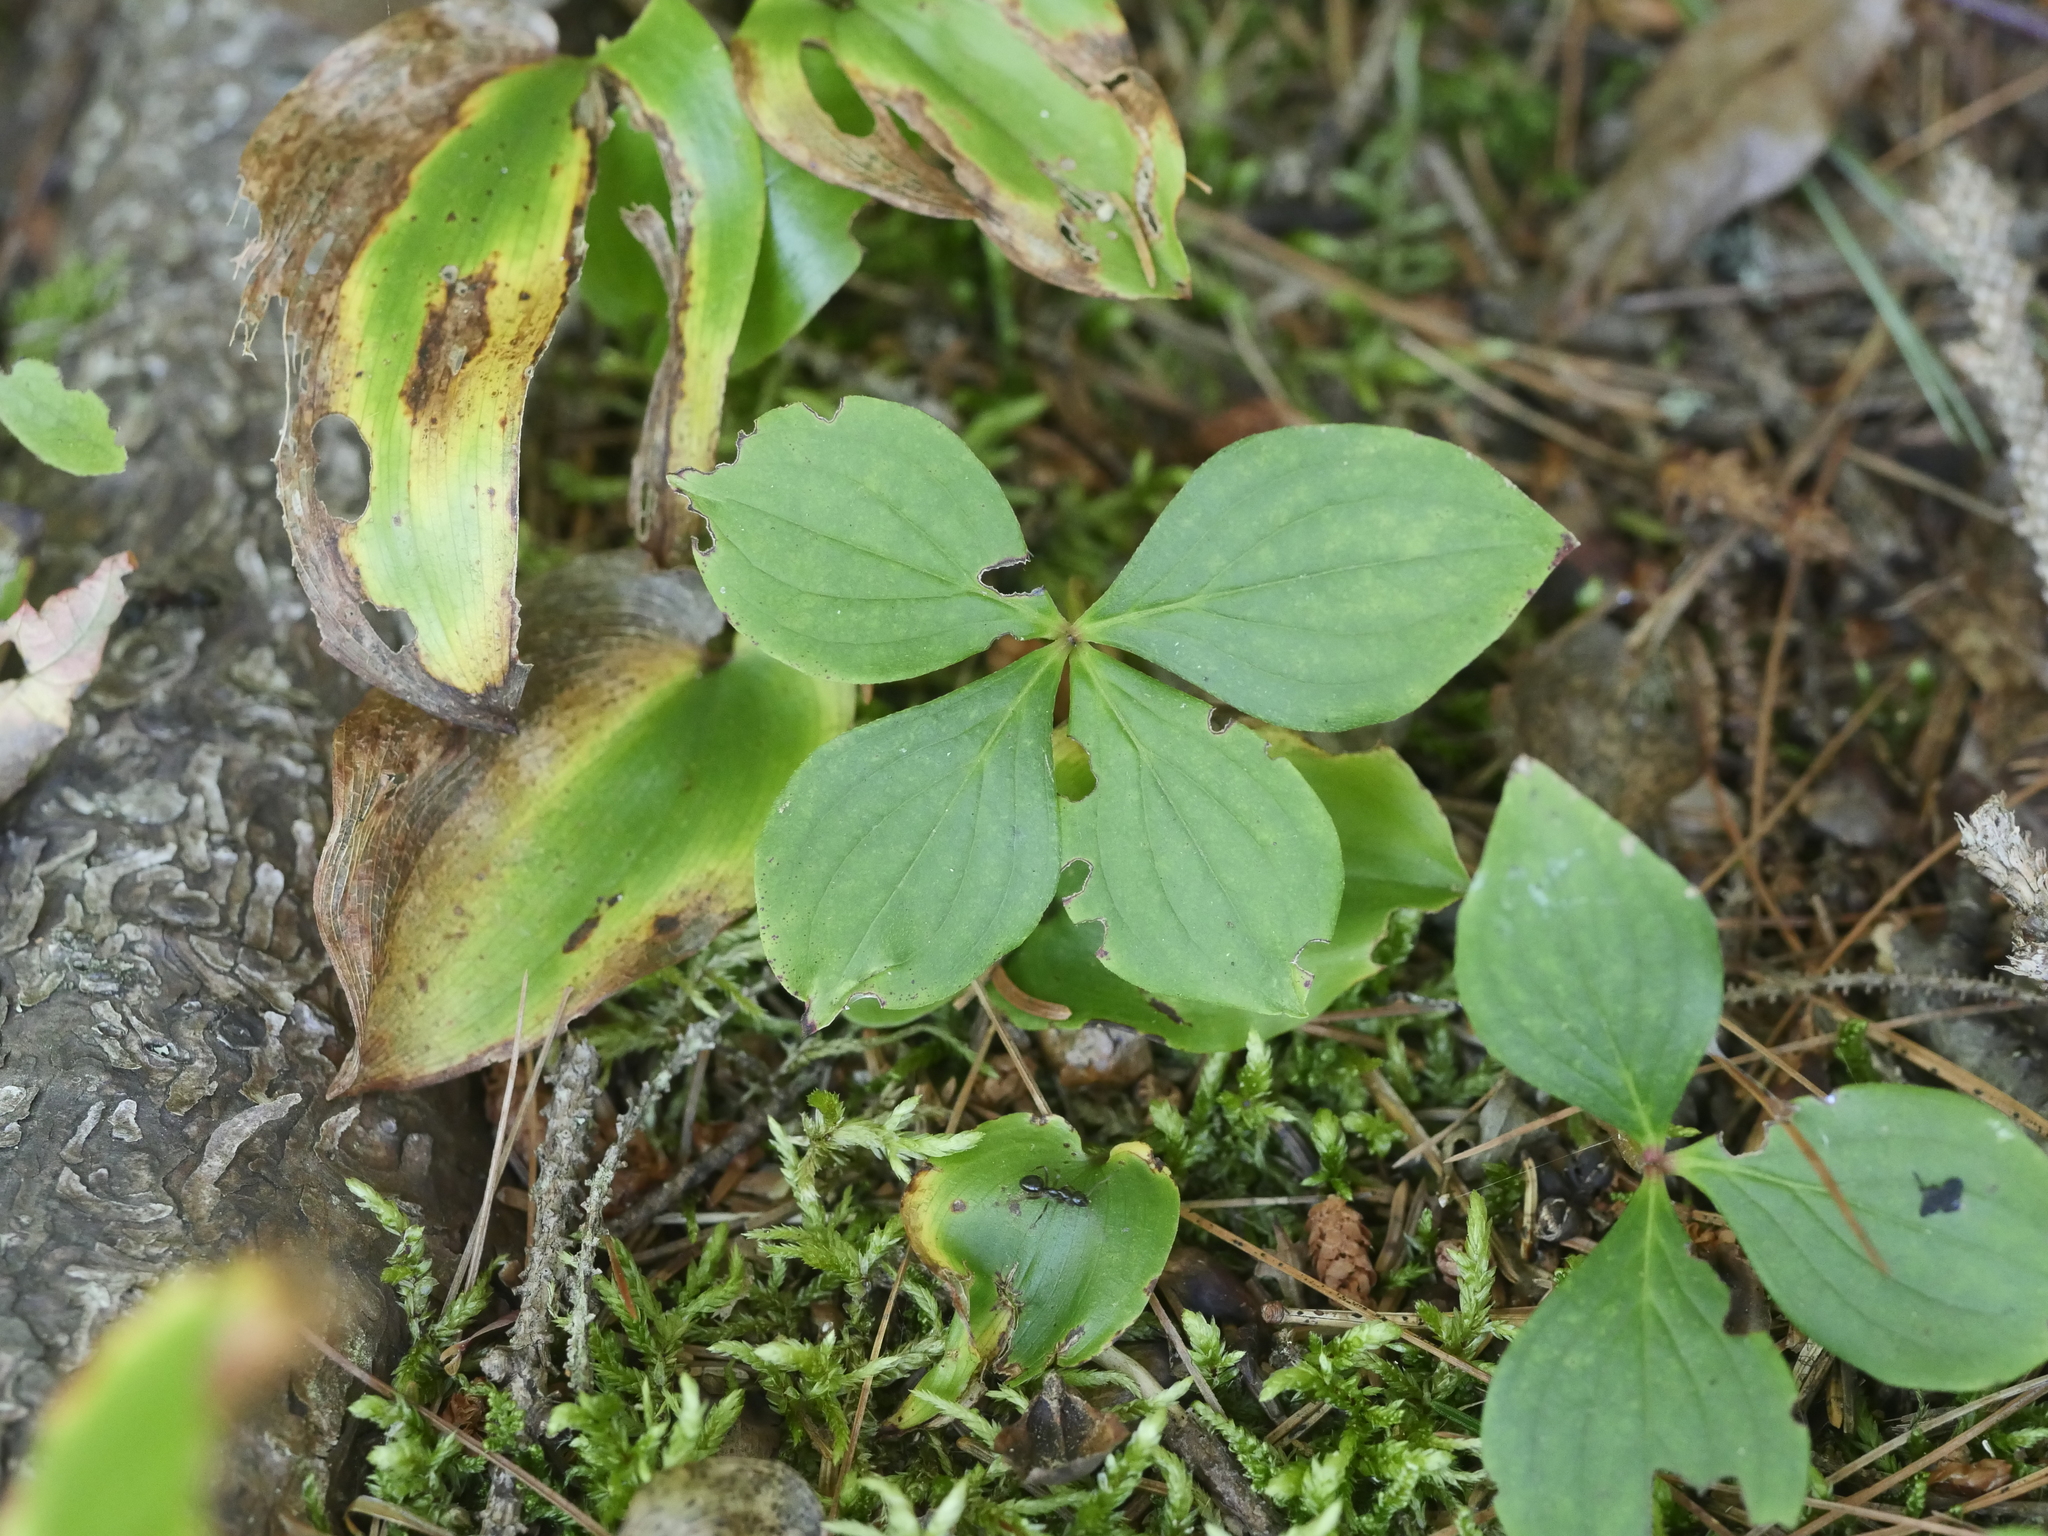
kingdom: Plantae
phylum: Tracheophyta
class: Magnoliopsida
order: Cornales
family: Cornaceae
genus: Cornus
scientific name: Cornus canadensis
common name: Creeping dogwood
